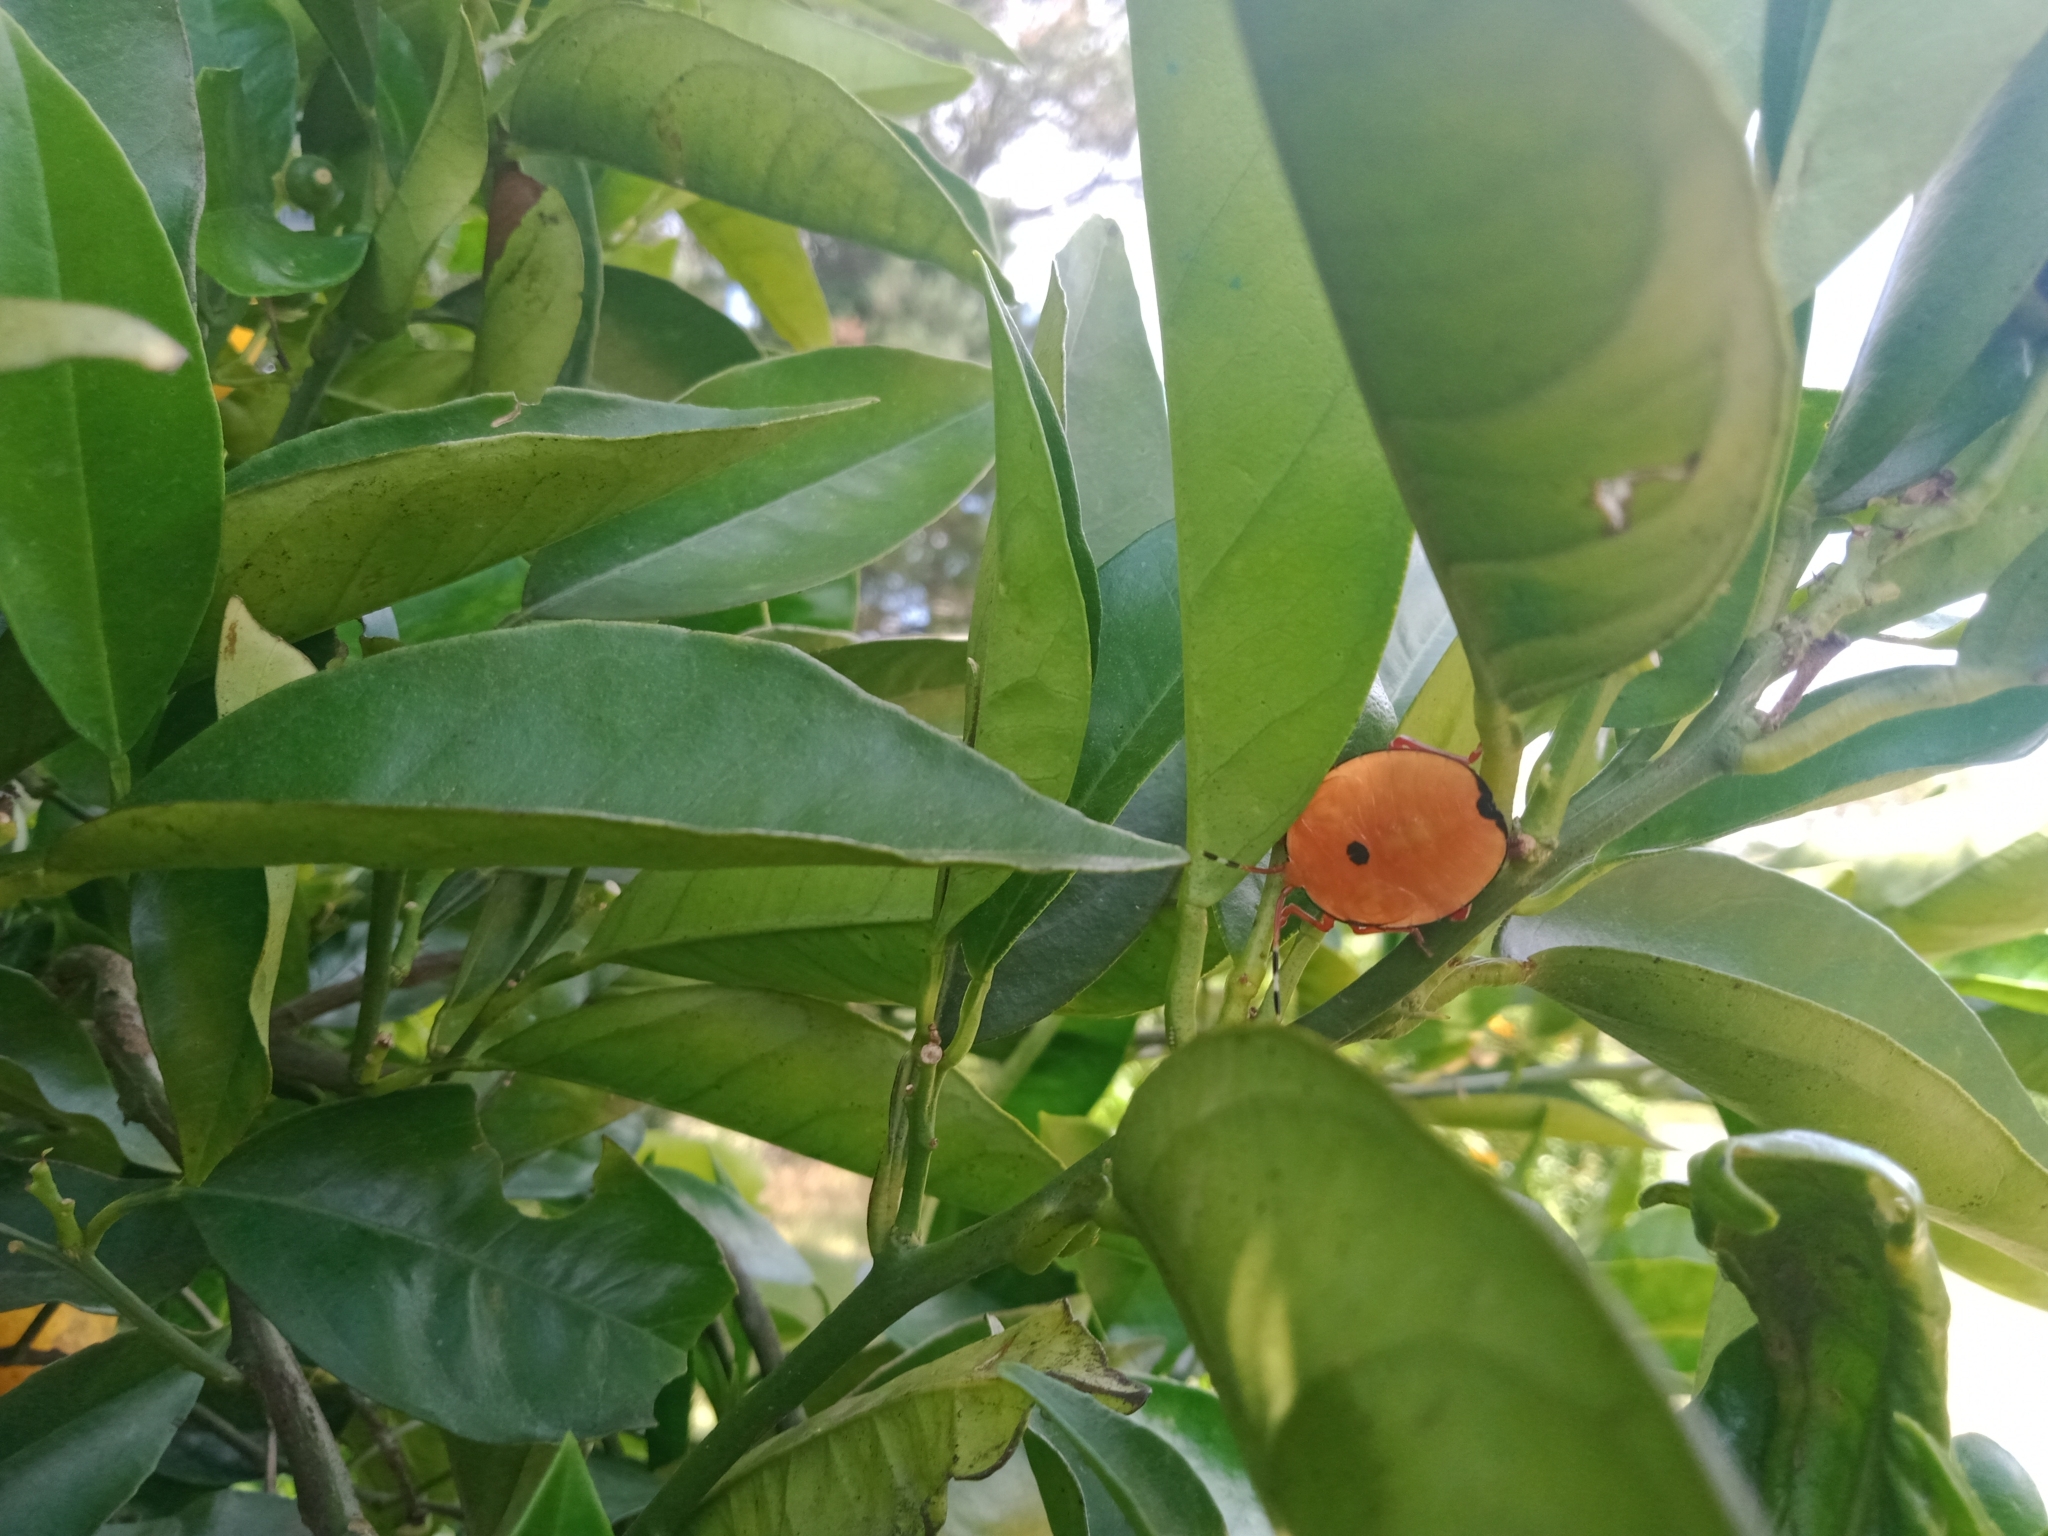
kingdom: Animalia
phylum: Arthropoda
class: Insecta
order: Hemiptera
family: Tessaratomidae
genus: Musgraveia
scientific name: Musgraveia sulciventris
